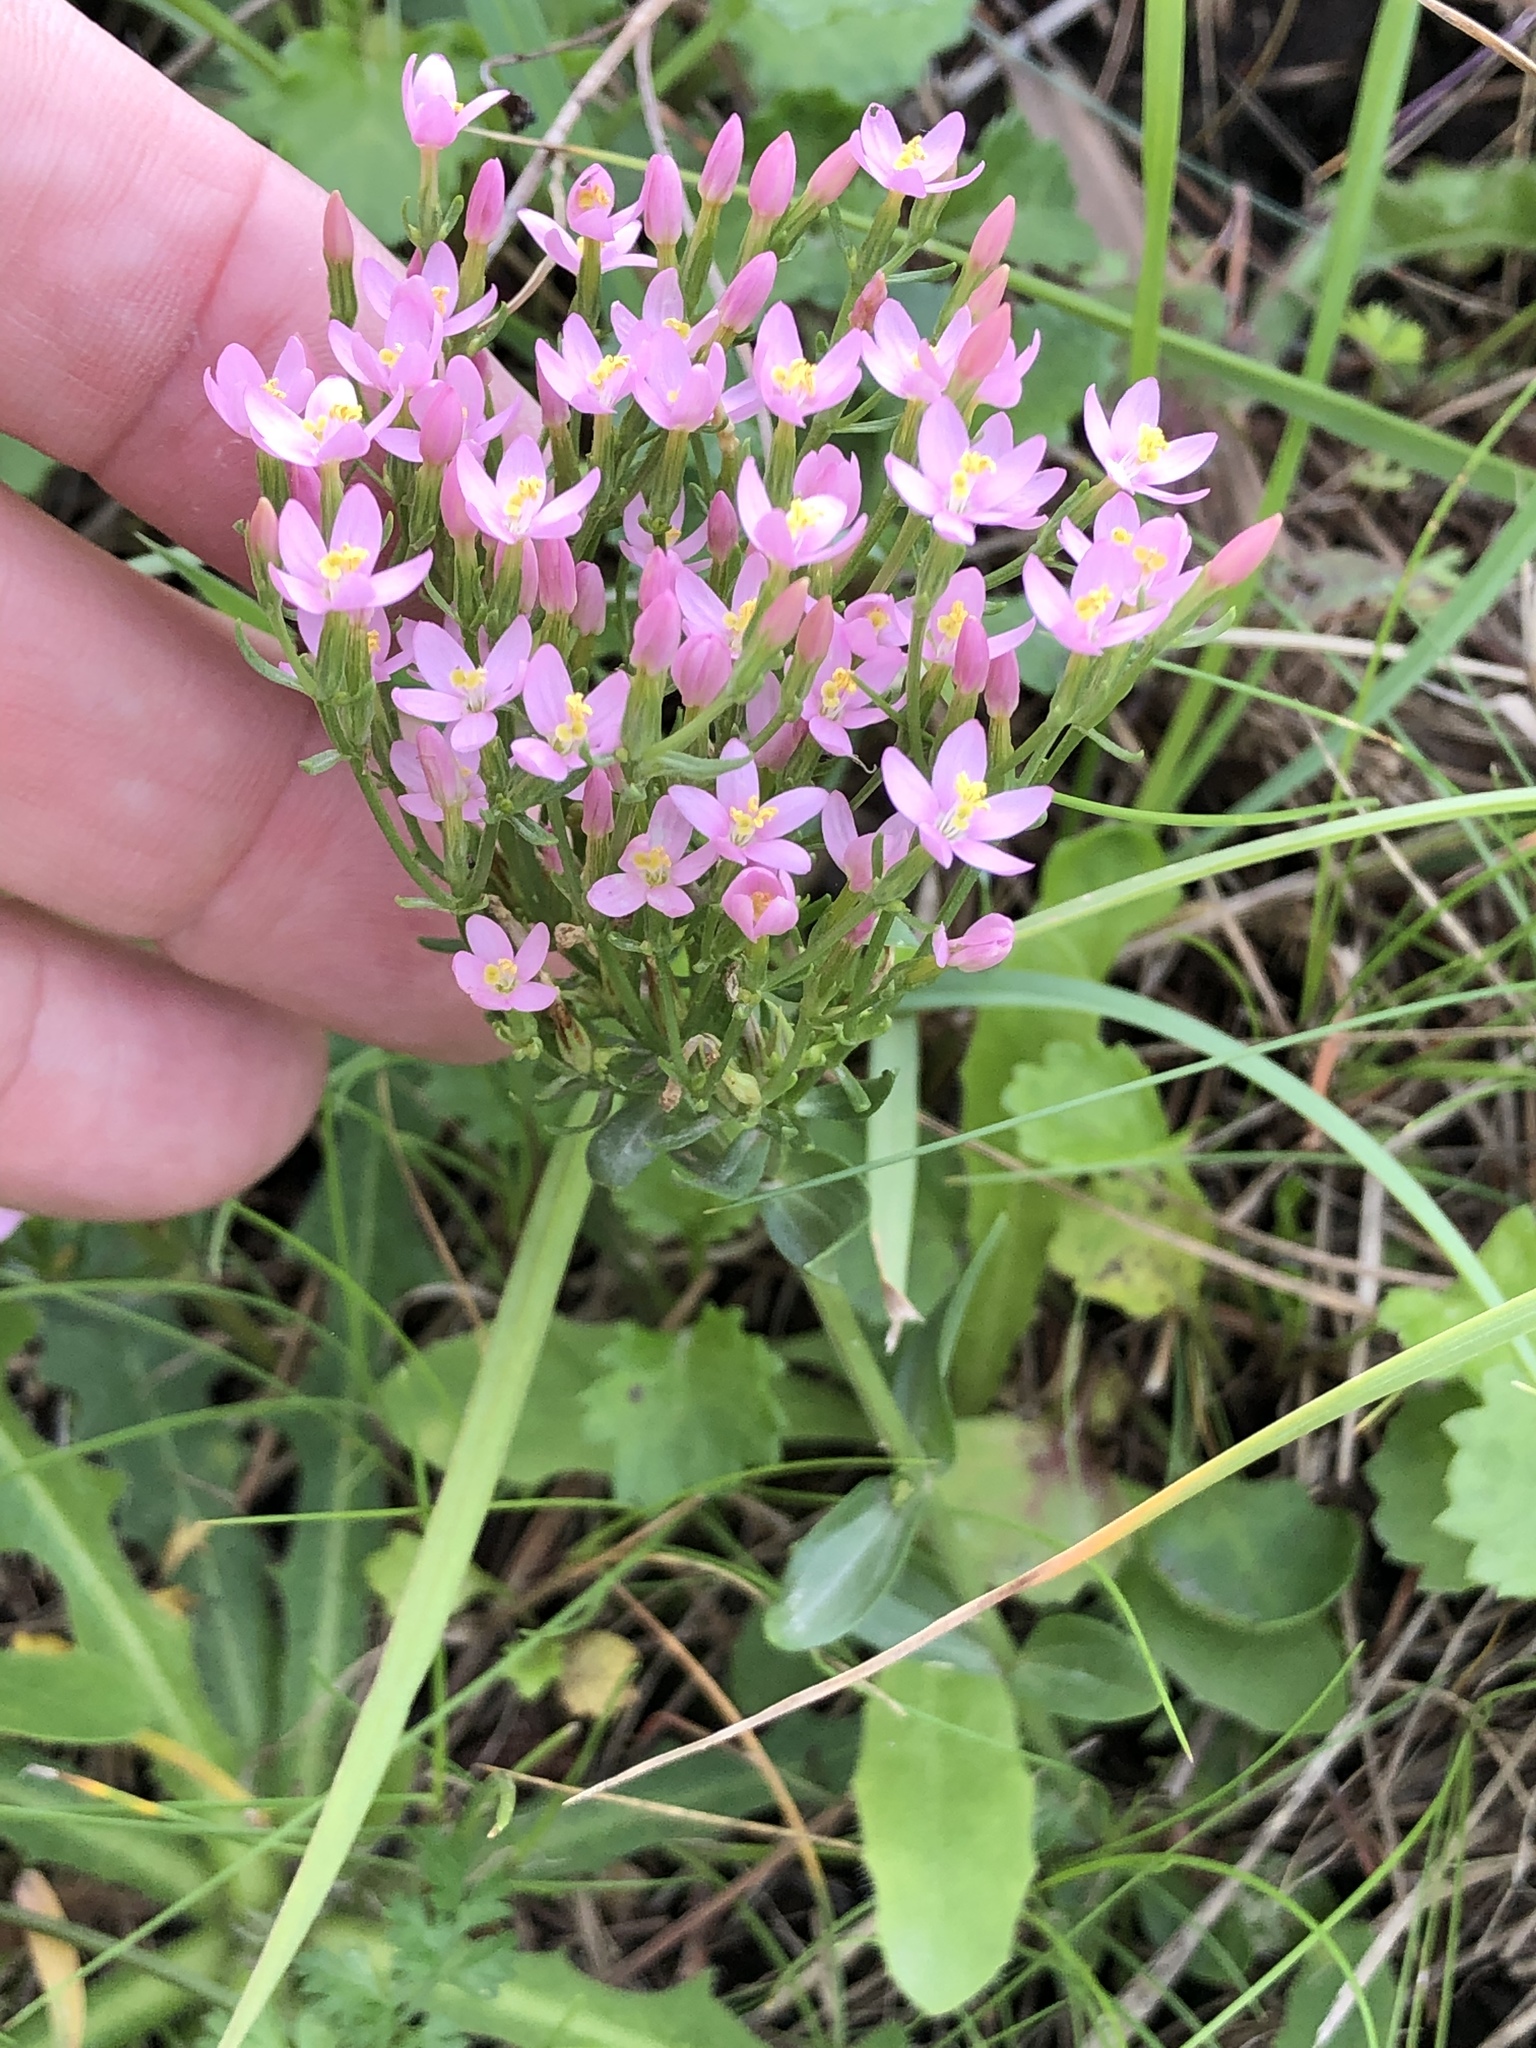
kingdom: Plantae
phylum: Tracheophyta
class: Magnoliopsida
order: Gentianales
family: Gentianaceae
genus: Centaurium
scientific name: Centaurium erythraea
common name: Common centaury
